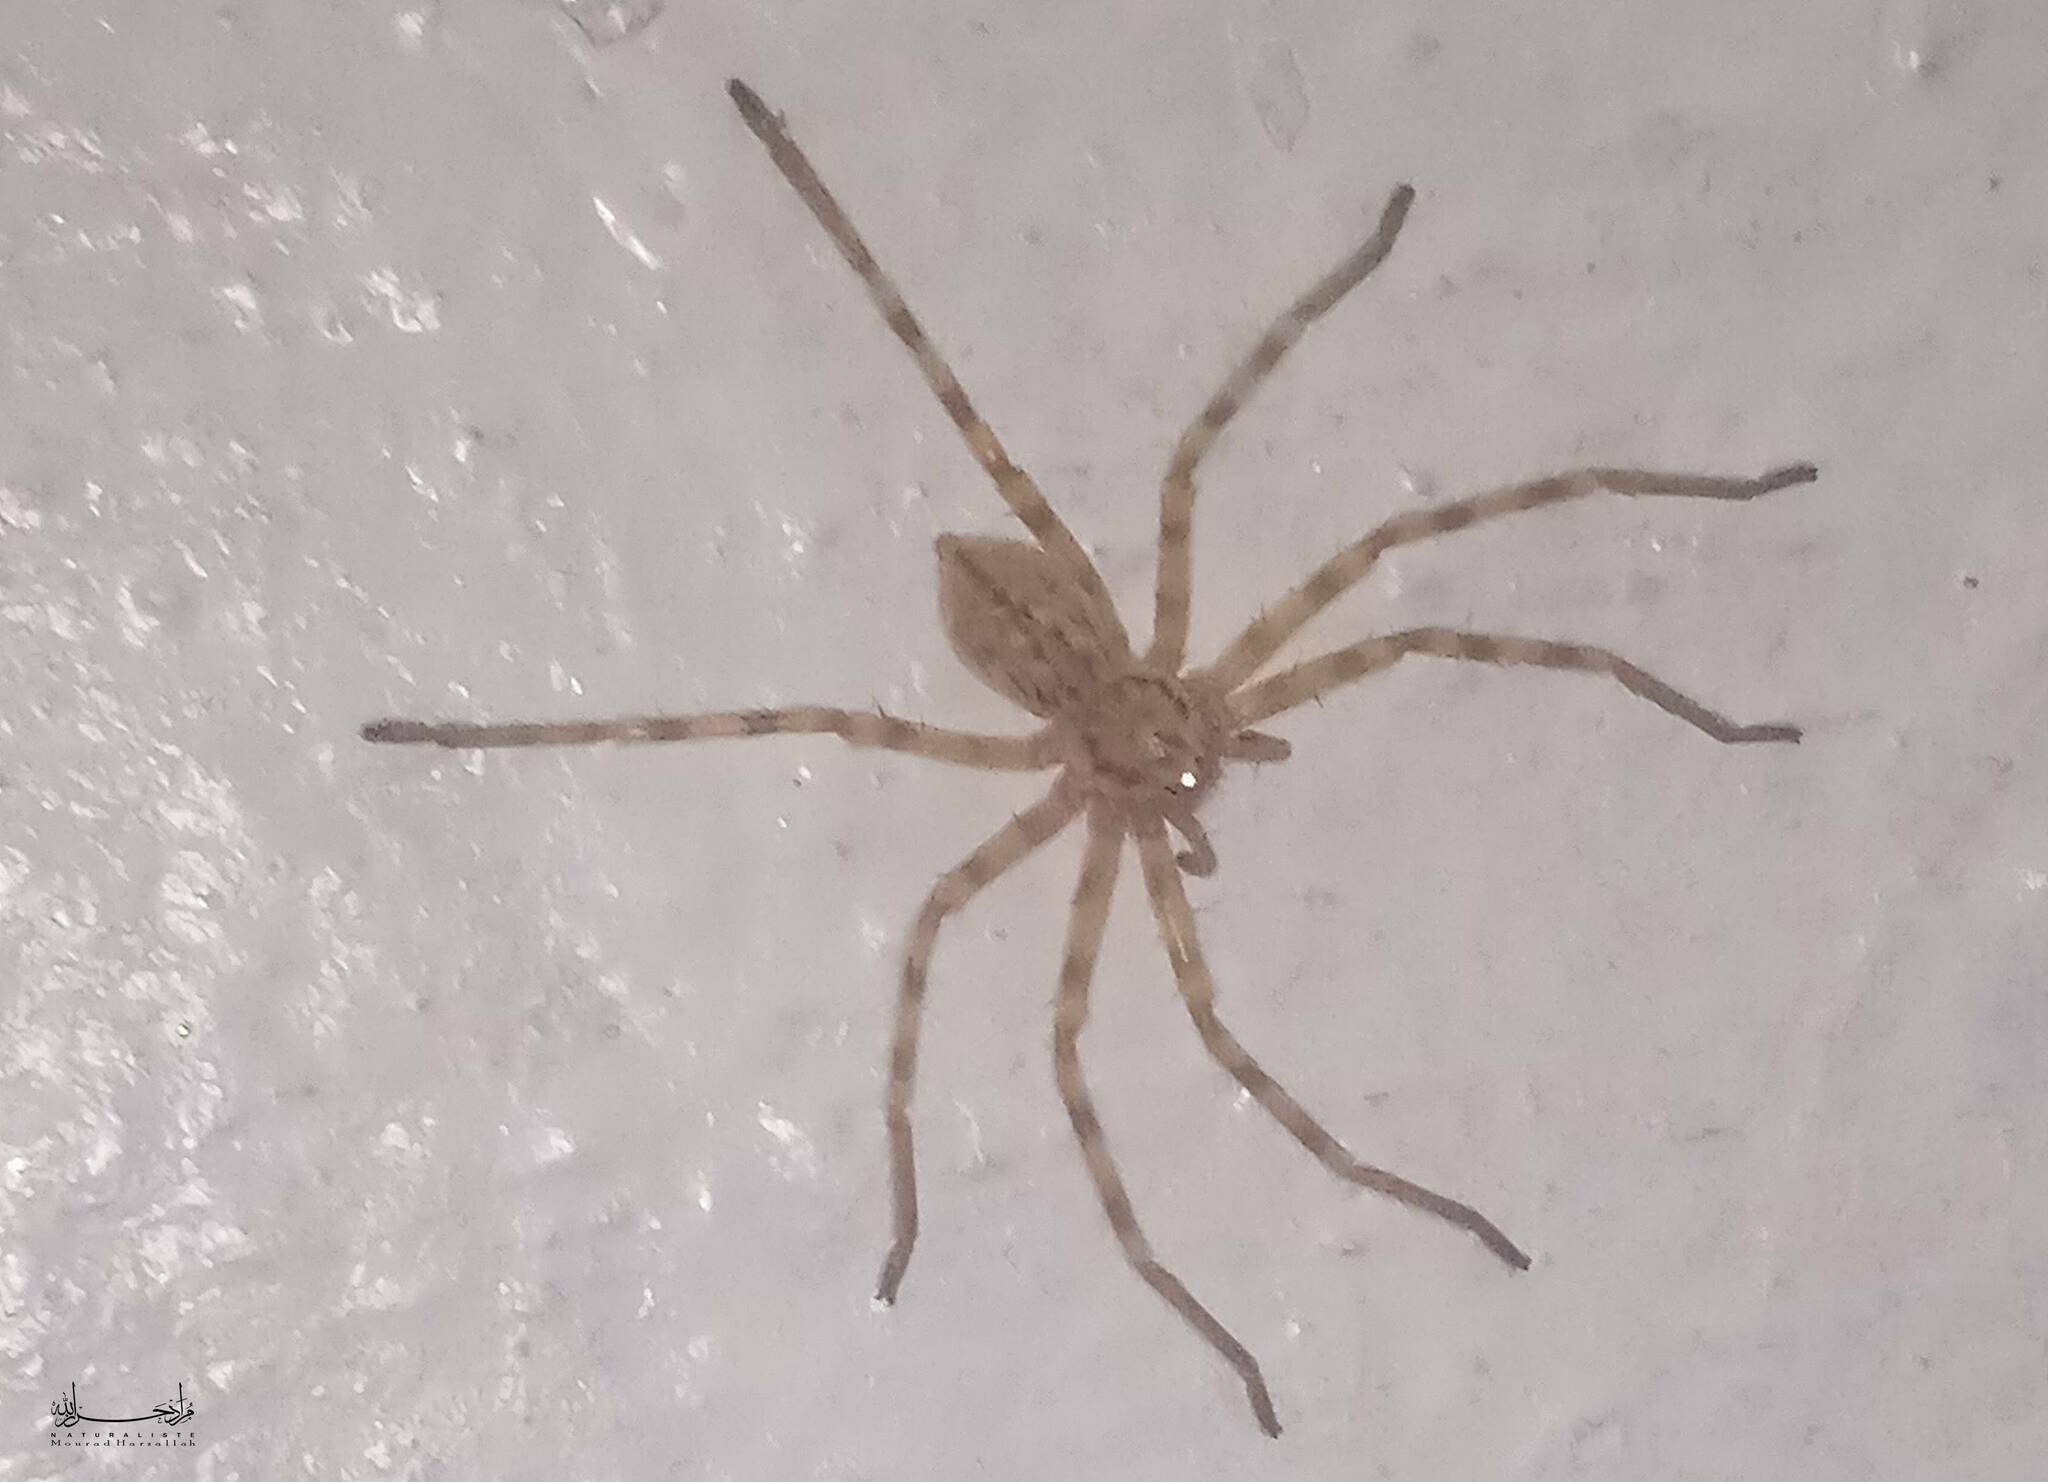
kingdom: Animalia
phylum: Arthropoda
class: Arachnida
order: Araneae
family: Sparassidae
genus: Eusparassus
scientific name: Eusparassus walckenaeri
